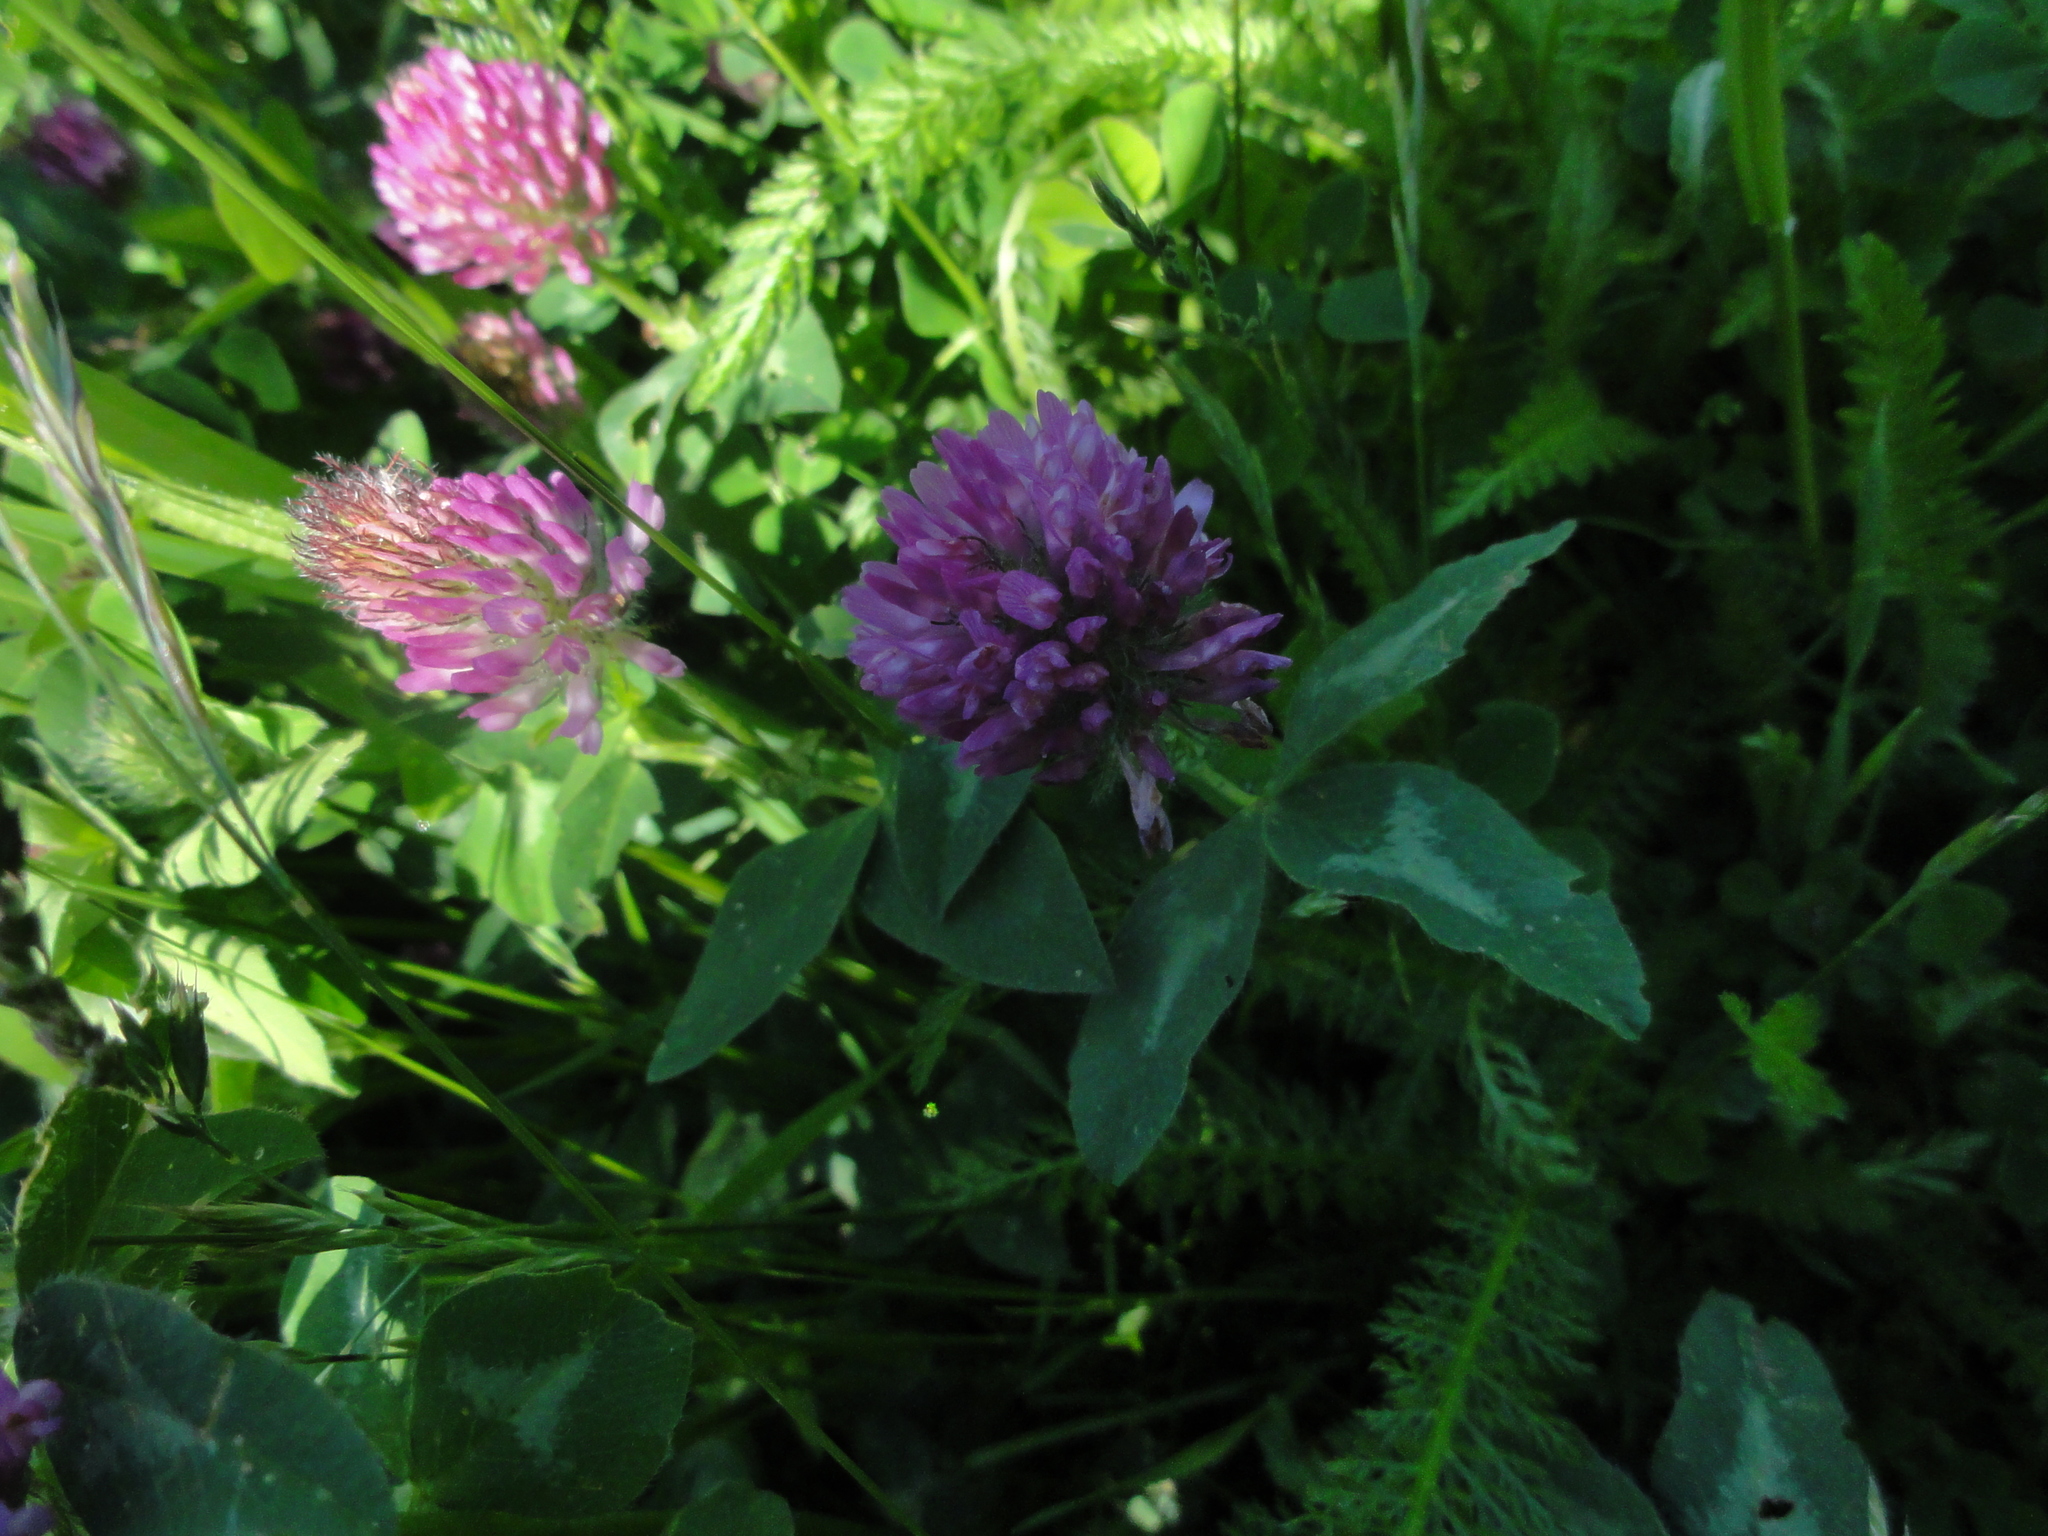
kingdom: Plantae
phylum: Tracheophyta
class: Magnoliopsida
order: Fabales
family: Fabaceae
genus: Trifolium
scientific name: Trifolium pratense
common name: Red clover
